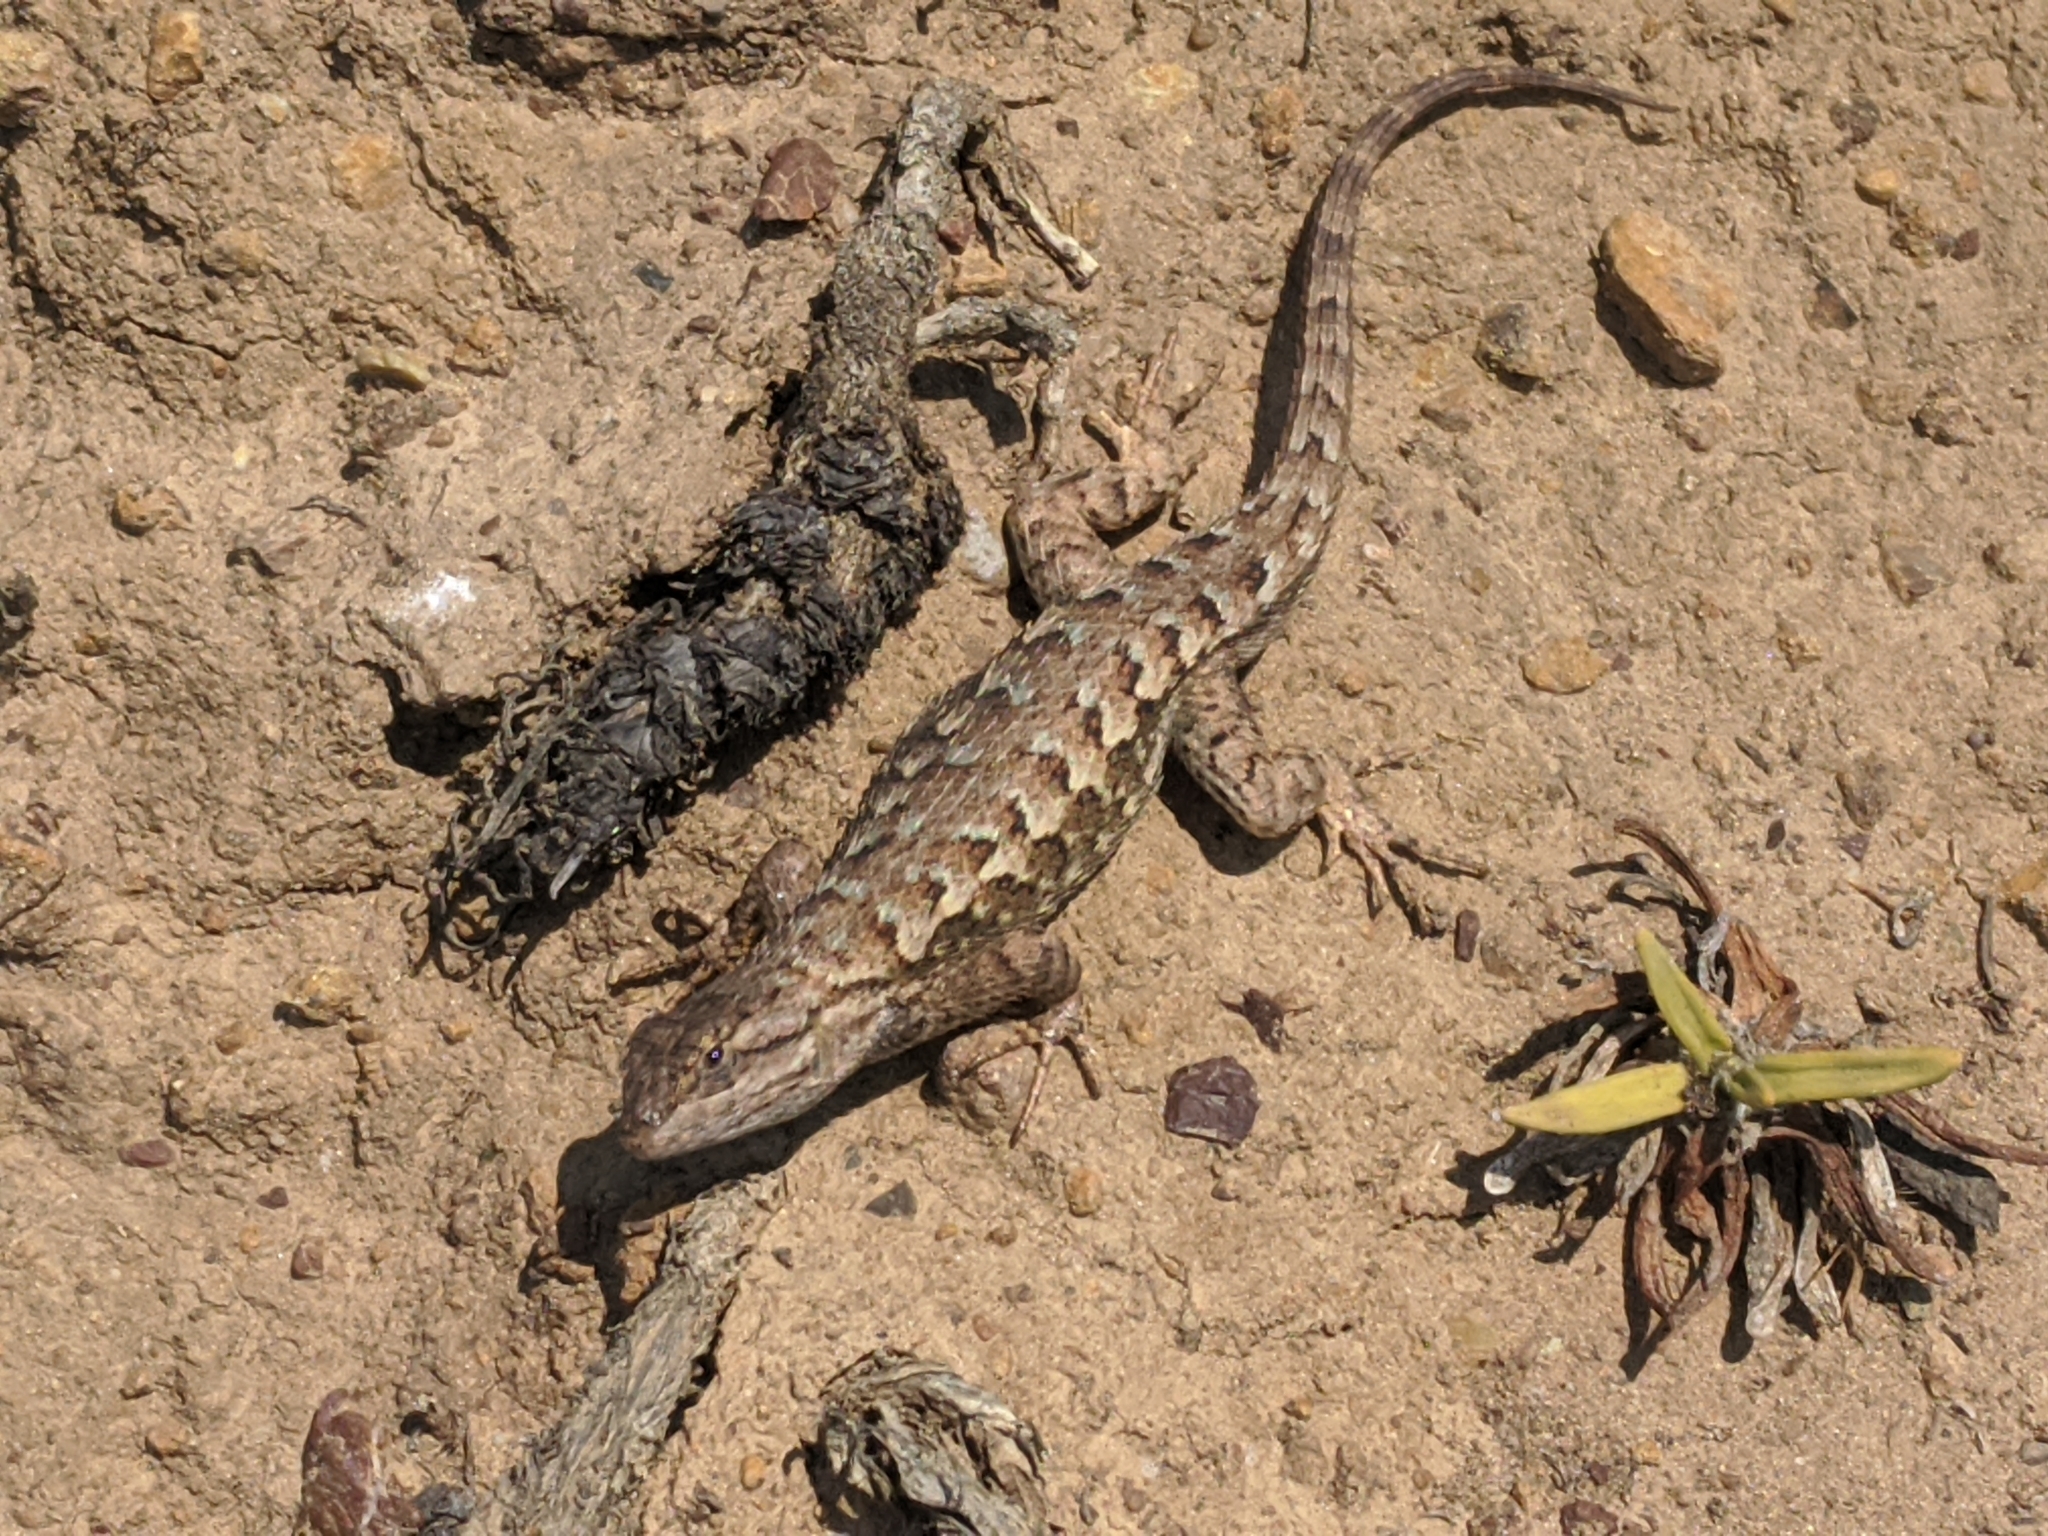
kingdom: Animalia
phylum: Chordata
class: Squamata
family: Phrynosomatidae
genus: Sceloporus
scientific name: Sceloporus occidentalis
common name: Western fence lizard
